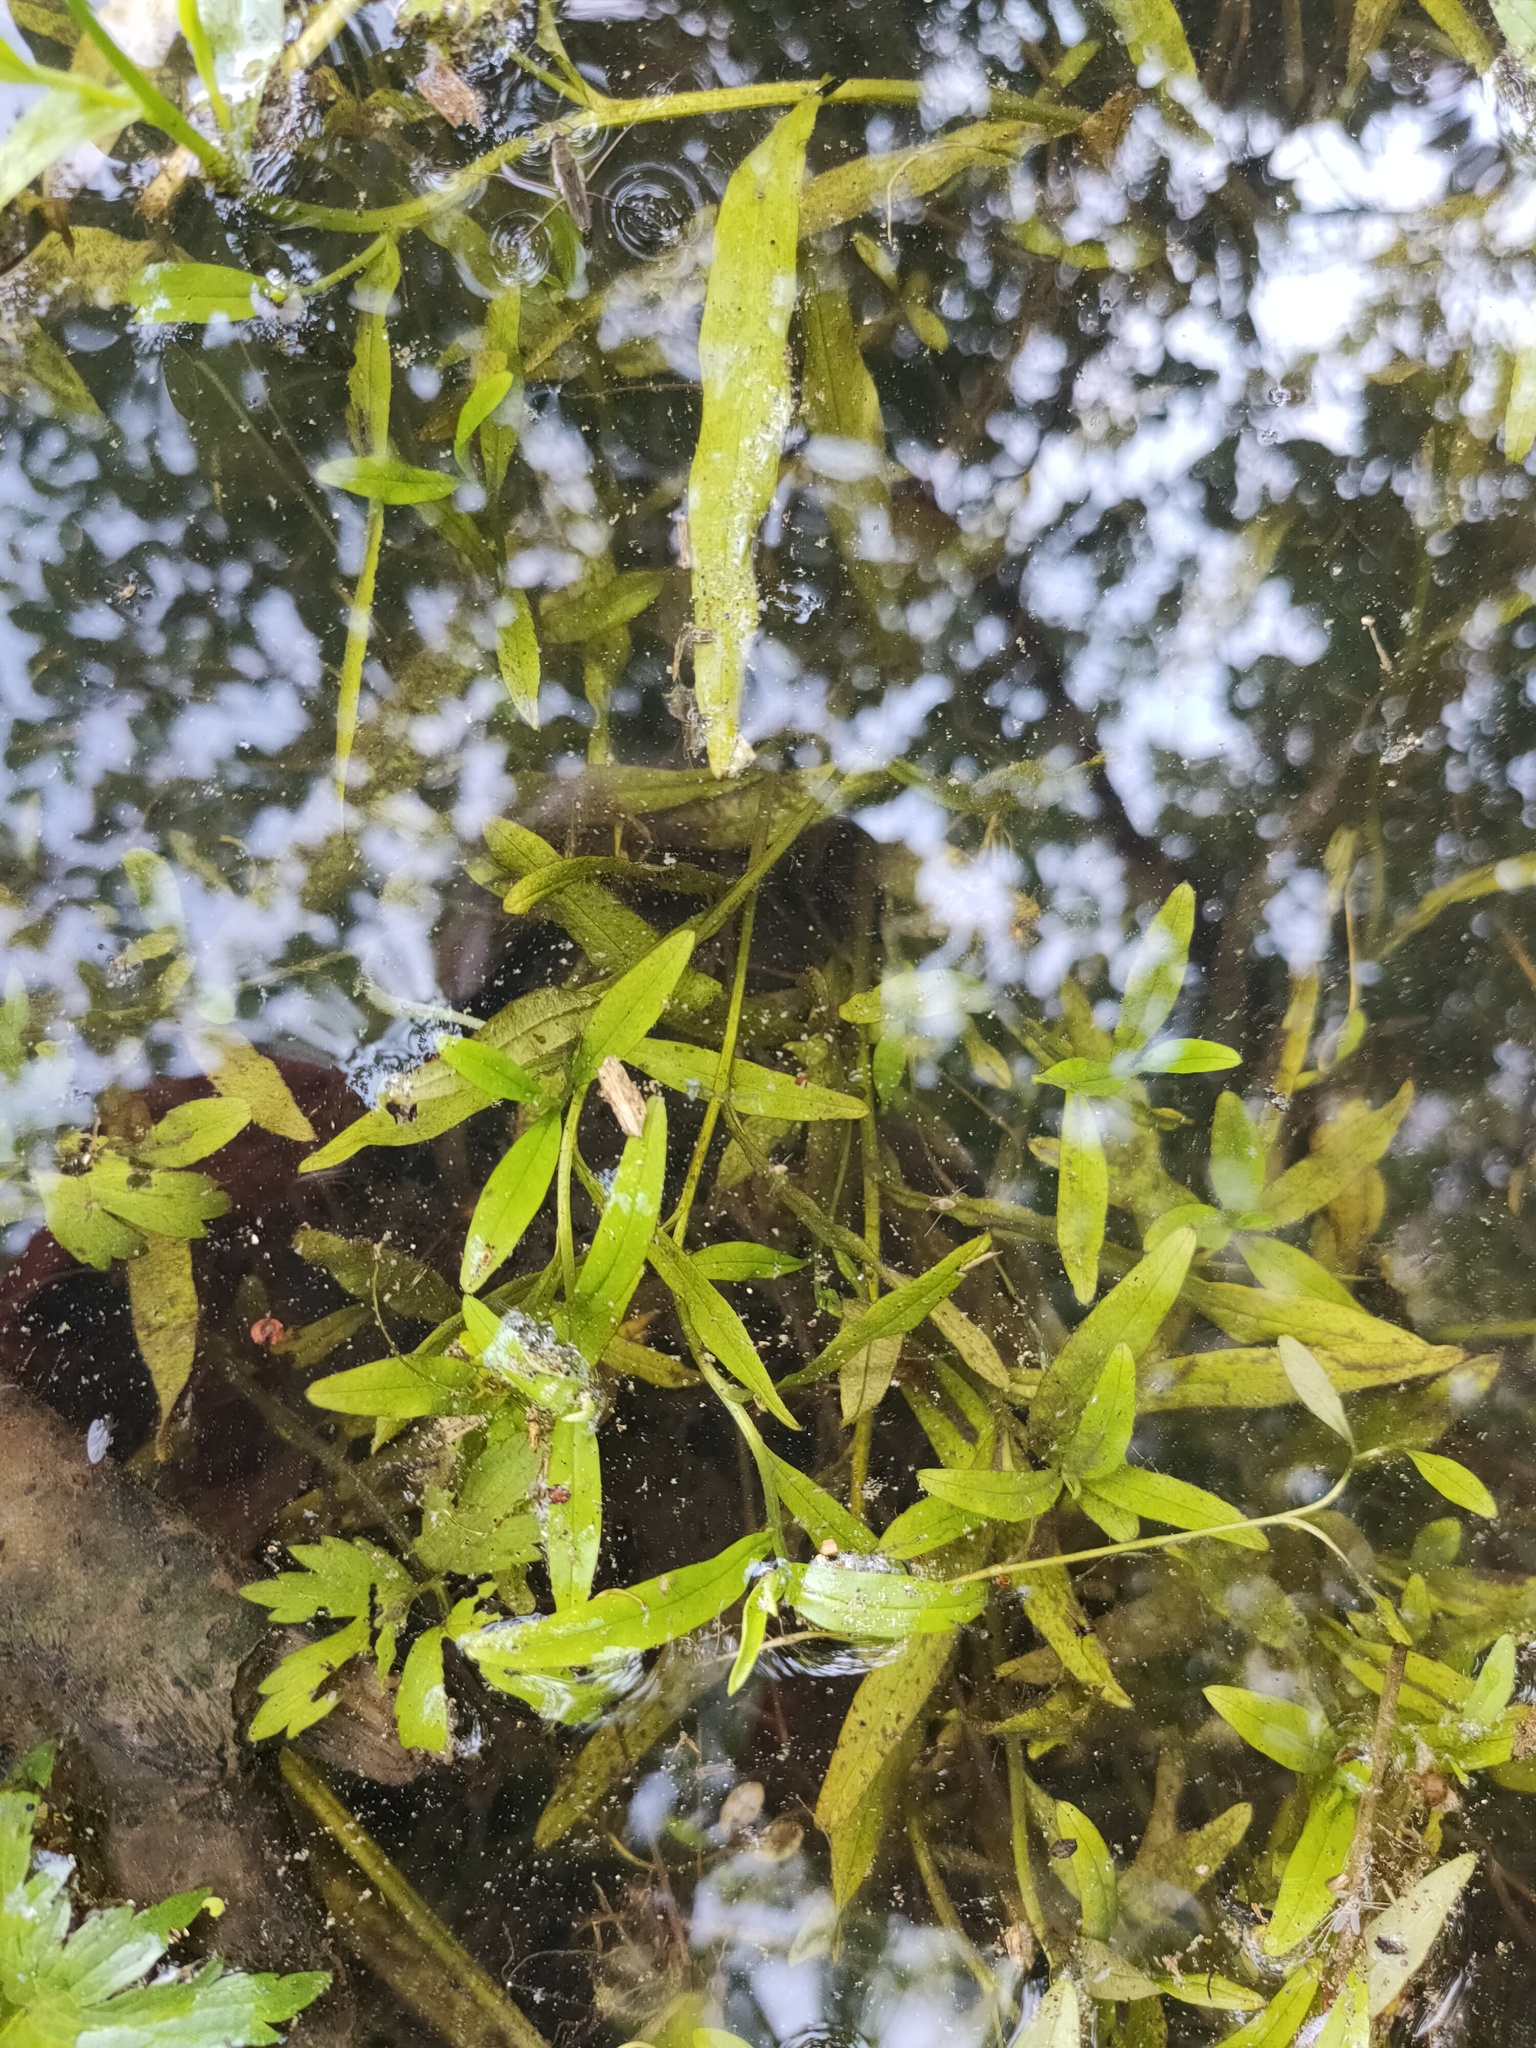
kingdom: Plantae
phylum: Tracheophyta
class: Magnoliopsida
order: Boraginales
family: Boraginaceae
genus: Myosotis
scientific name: Myosotis scorpioides
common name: Water forget-me-not
